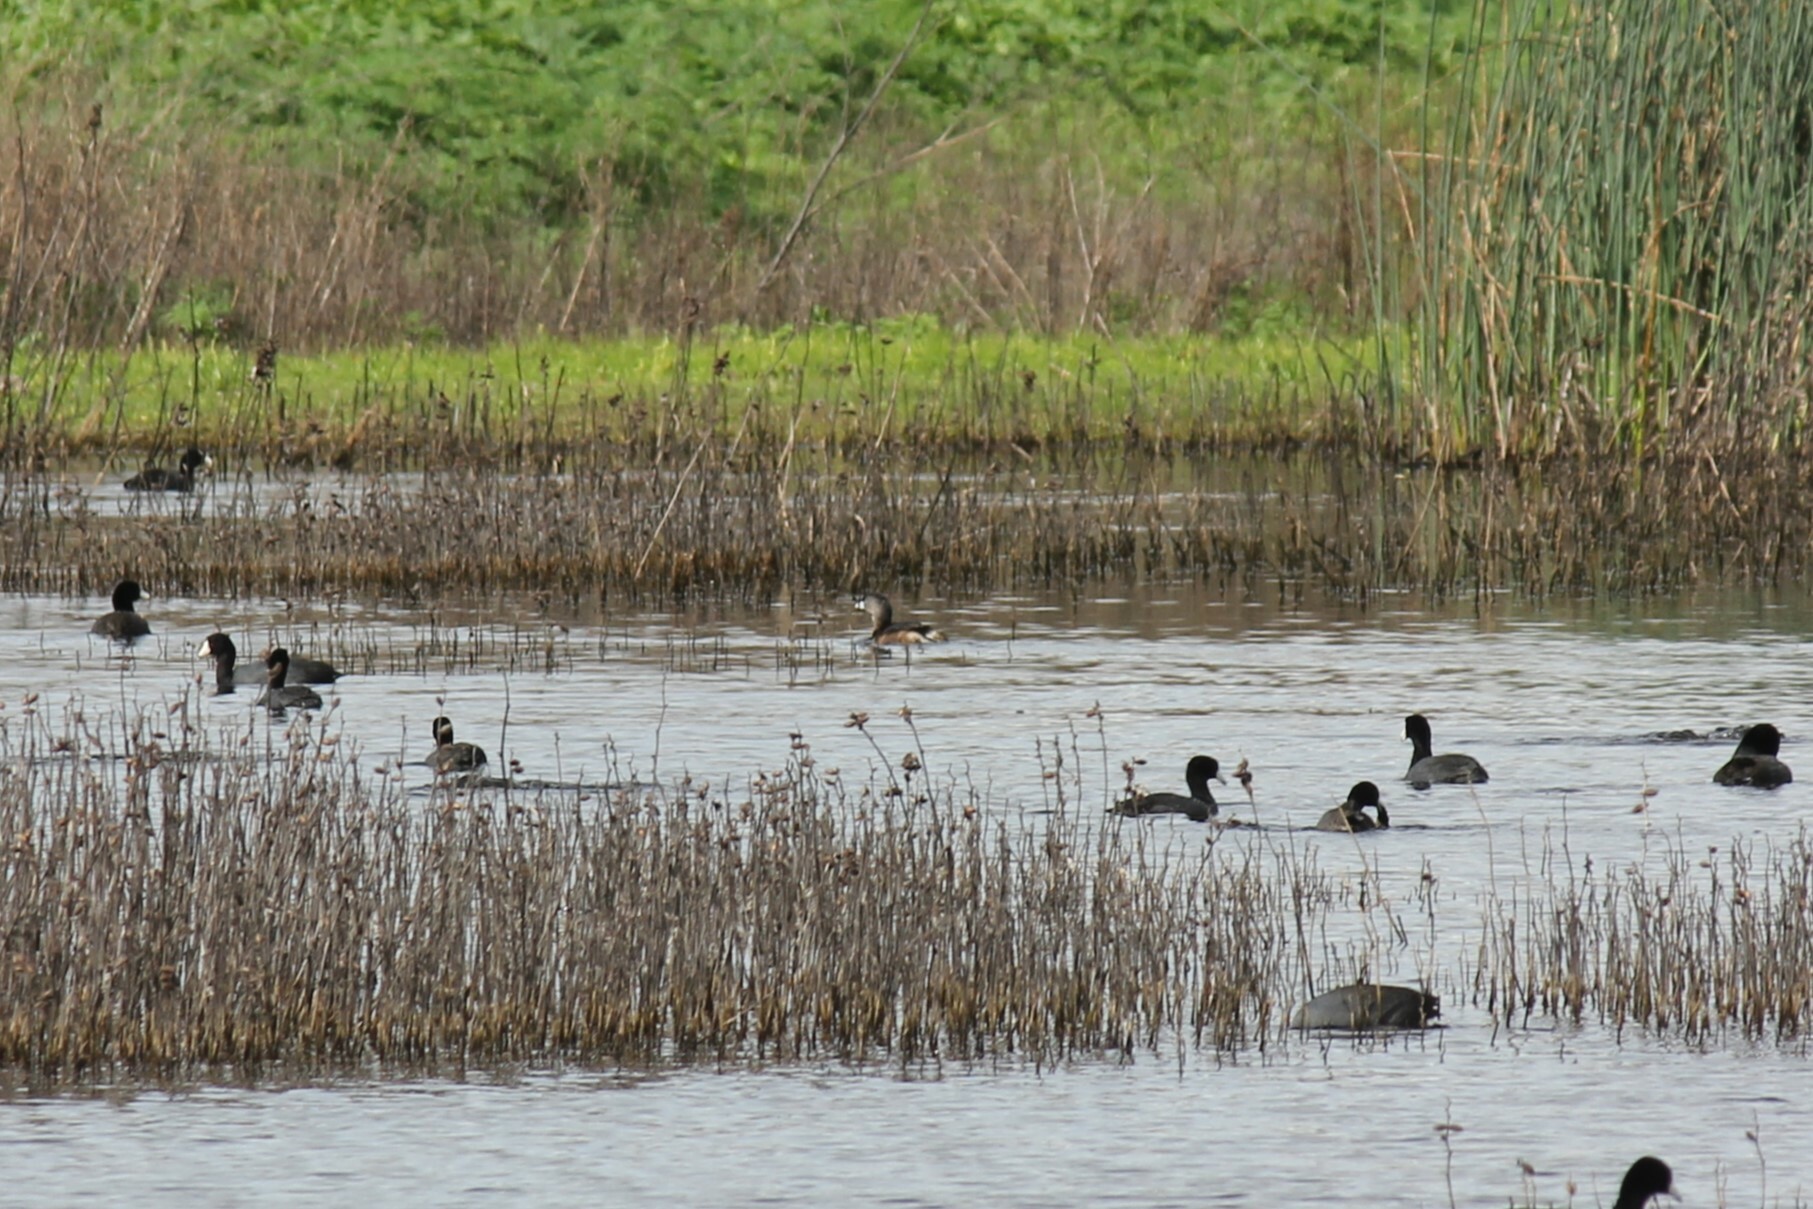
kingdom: Animalia
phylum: Chordata
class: Aves
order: Podicipediformes
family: Podicipedidae
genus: Podilymbus
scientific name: Podilymbus podiceps
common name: Pied-billed grebe
